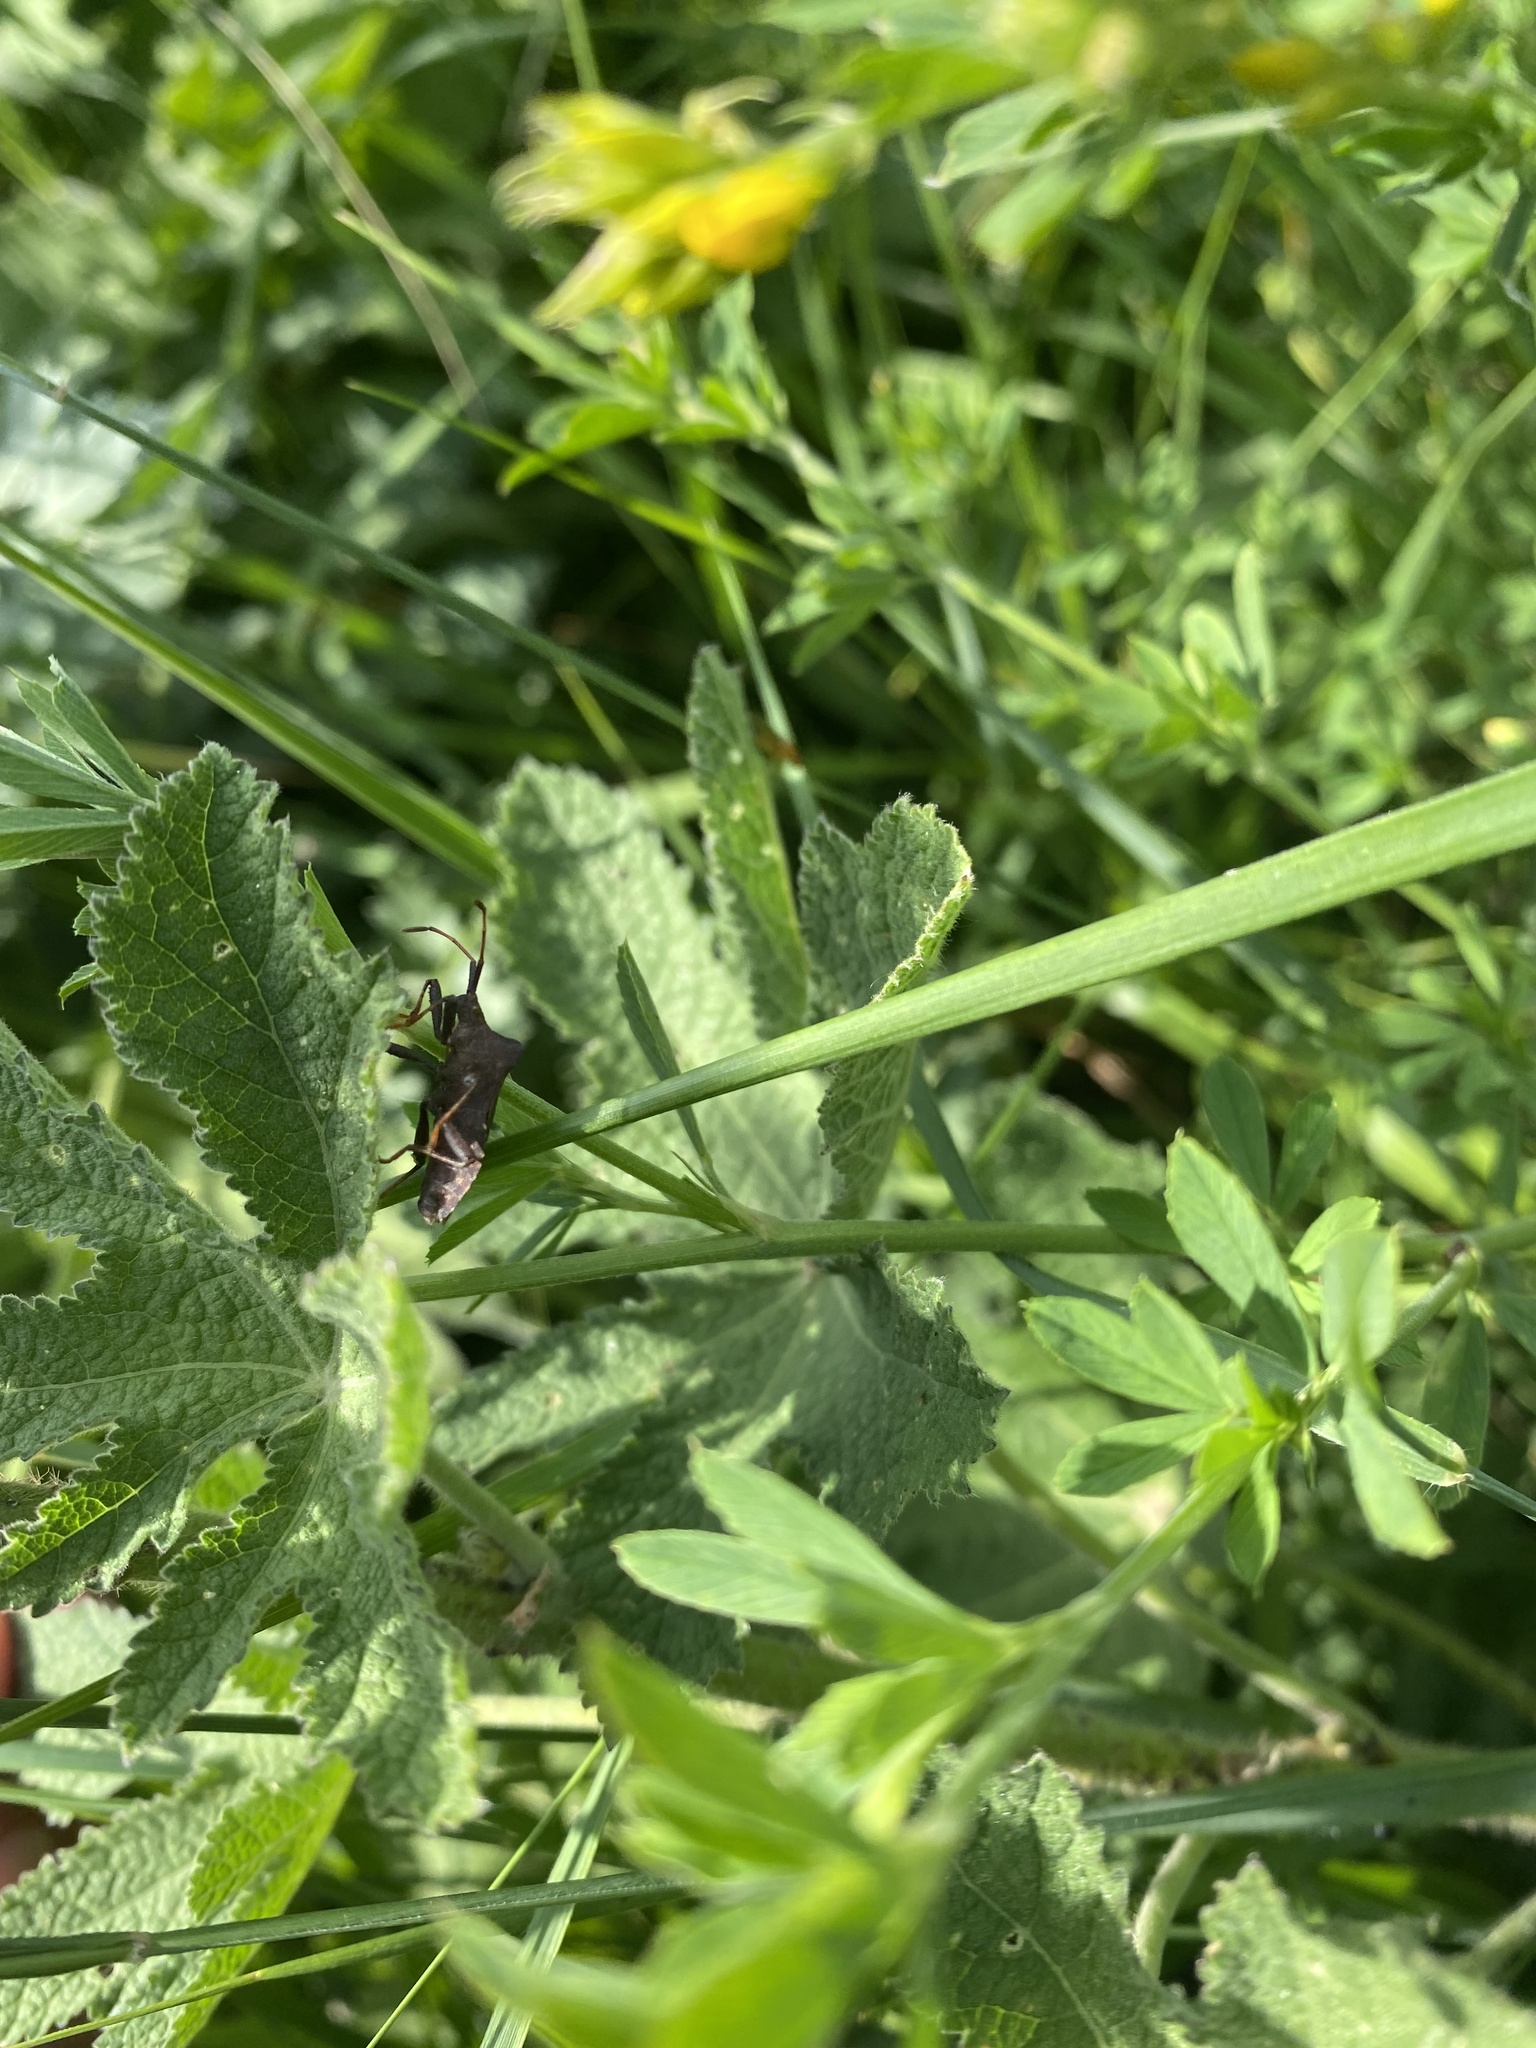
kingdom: Animalia
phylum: Arthropoda
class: Insecta
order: Hemiptera
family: Coreidae
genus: Coreus
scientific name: Coreus marginatus
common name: Dock bug
